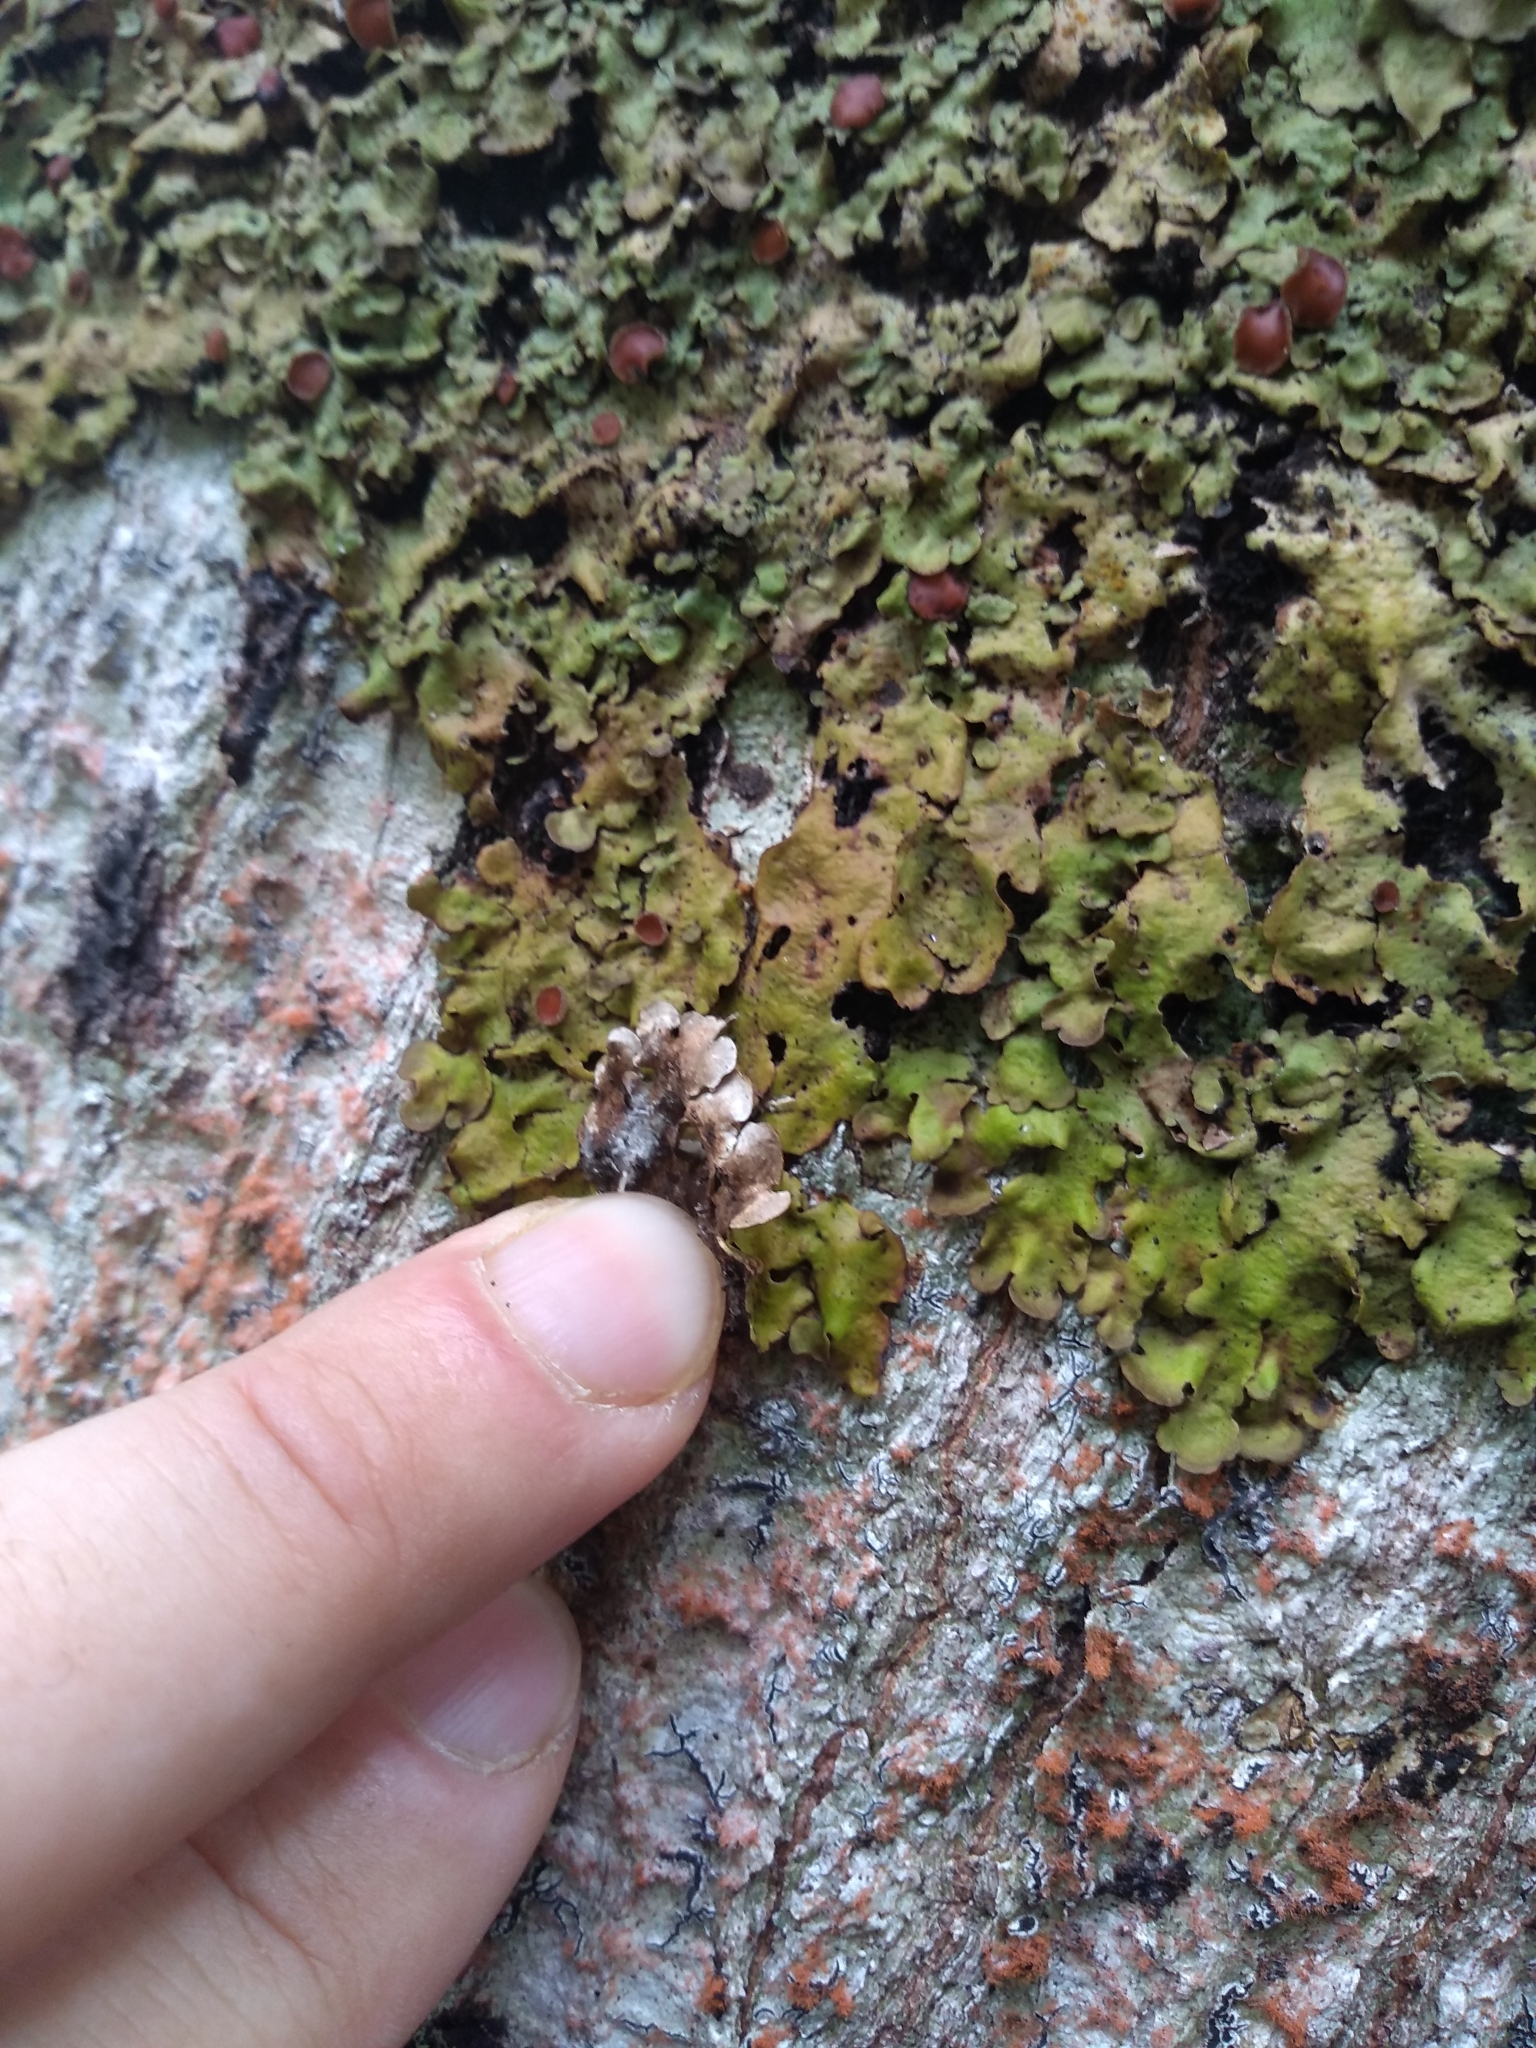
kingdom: Fungi
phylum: Ascomycota
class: Lecanoromycetes
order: Peltigerales
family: Lobariaceae
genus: Lobaria
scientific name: Lobaria adscripta
